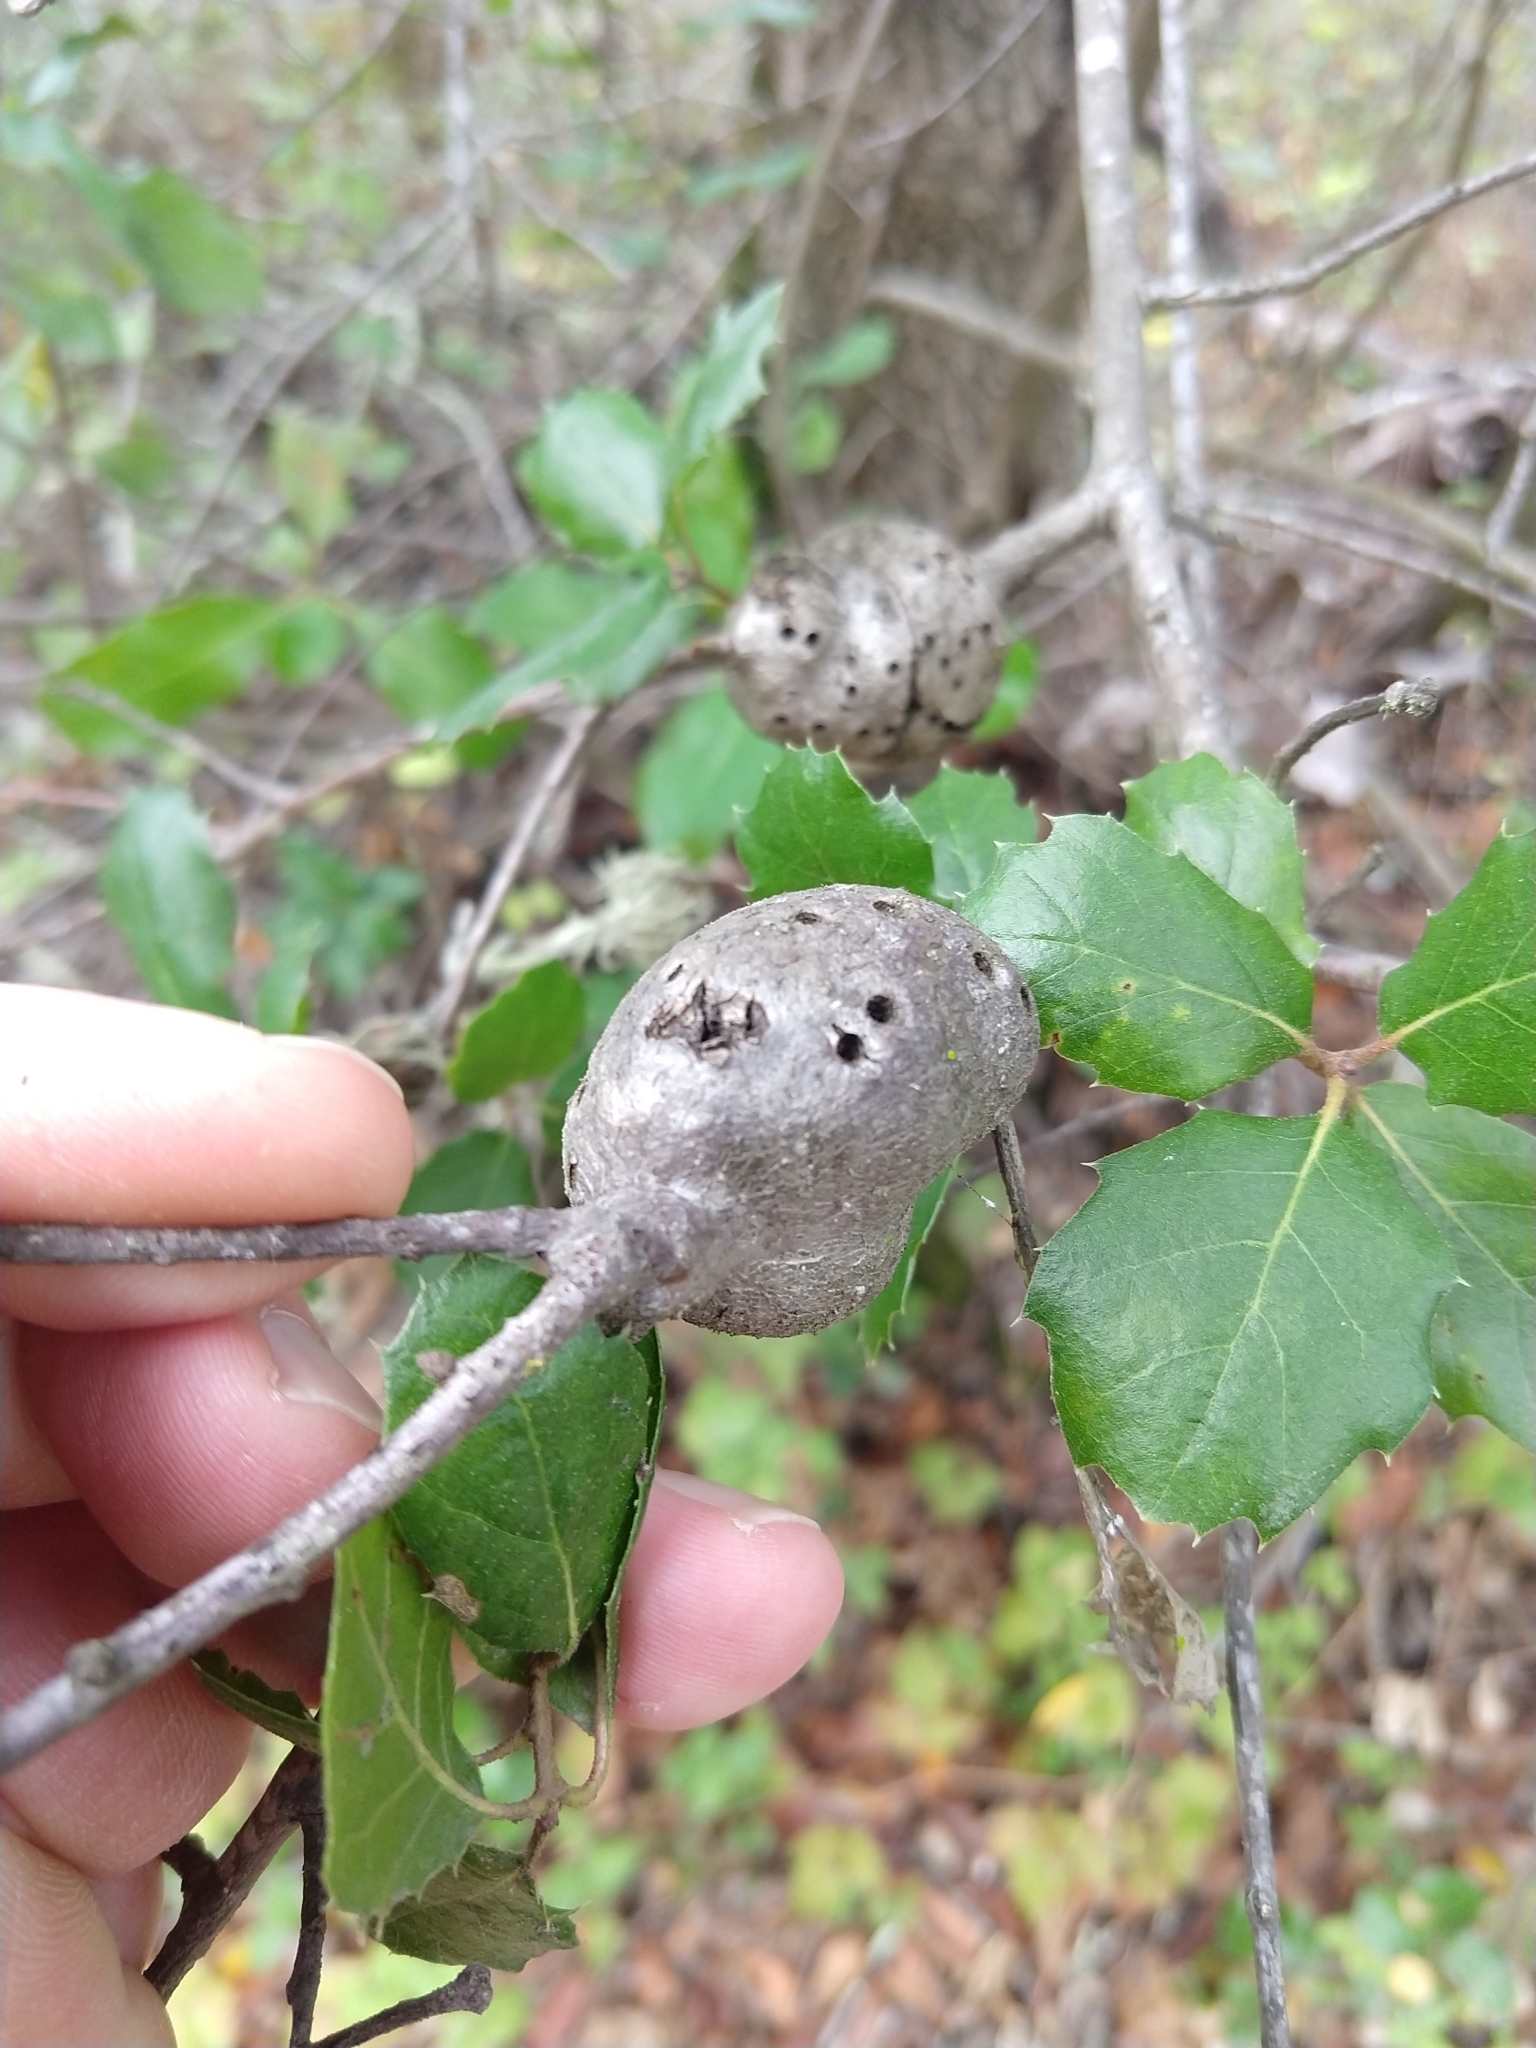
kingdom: Animalia
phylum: Arthropoda
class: Insecta
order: Hymenoptera
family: Cynipidae
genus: Callirhytis
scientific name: Callirhytis
